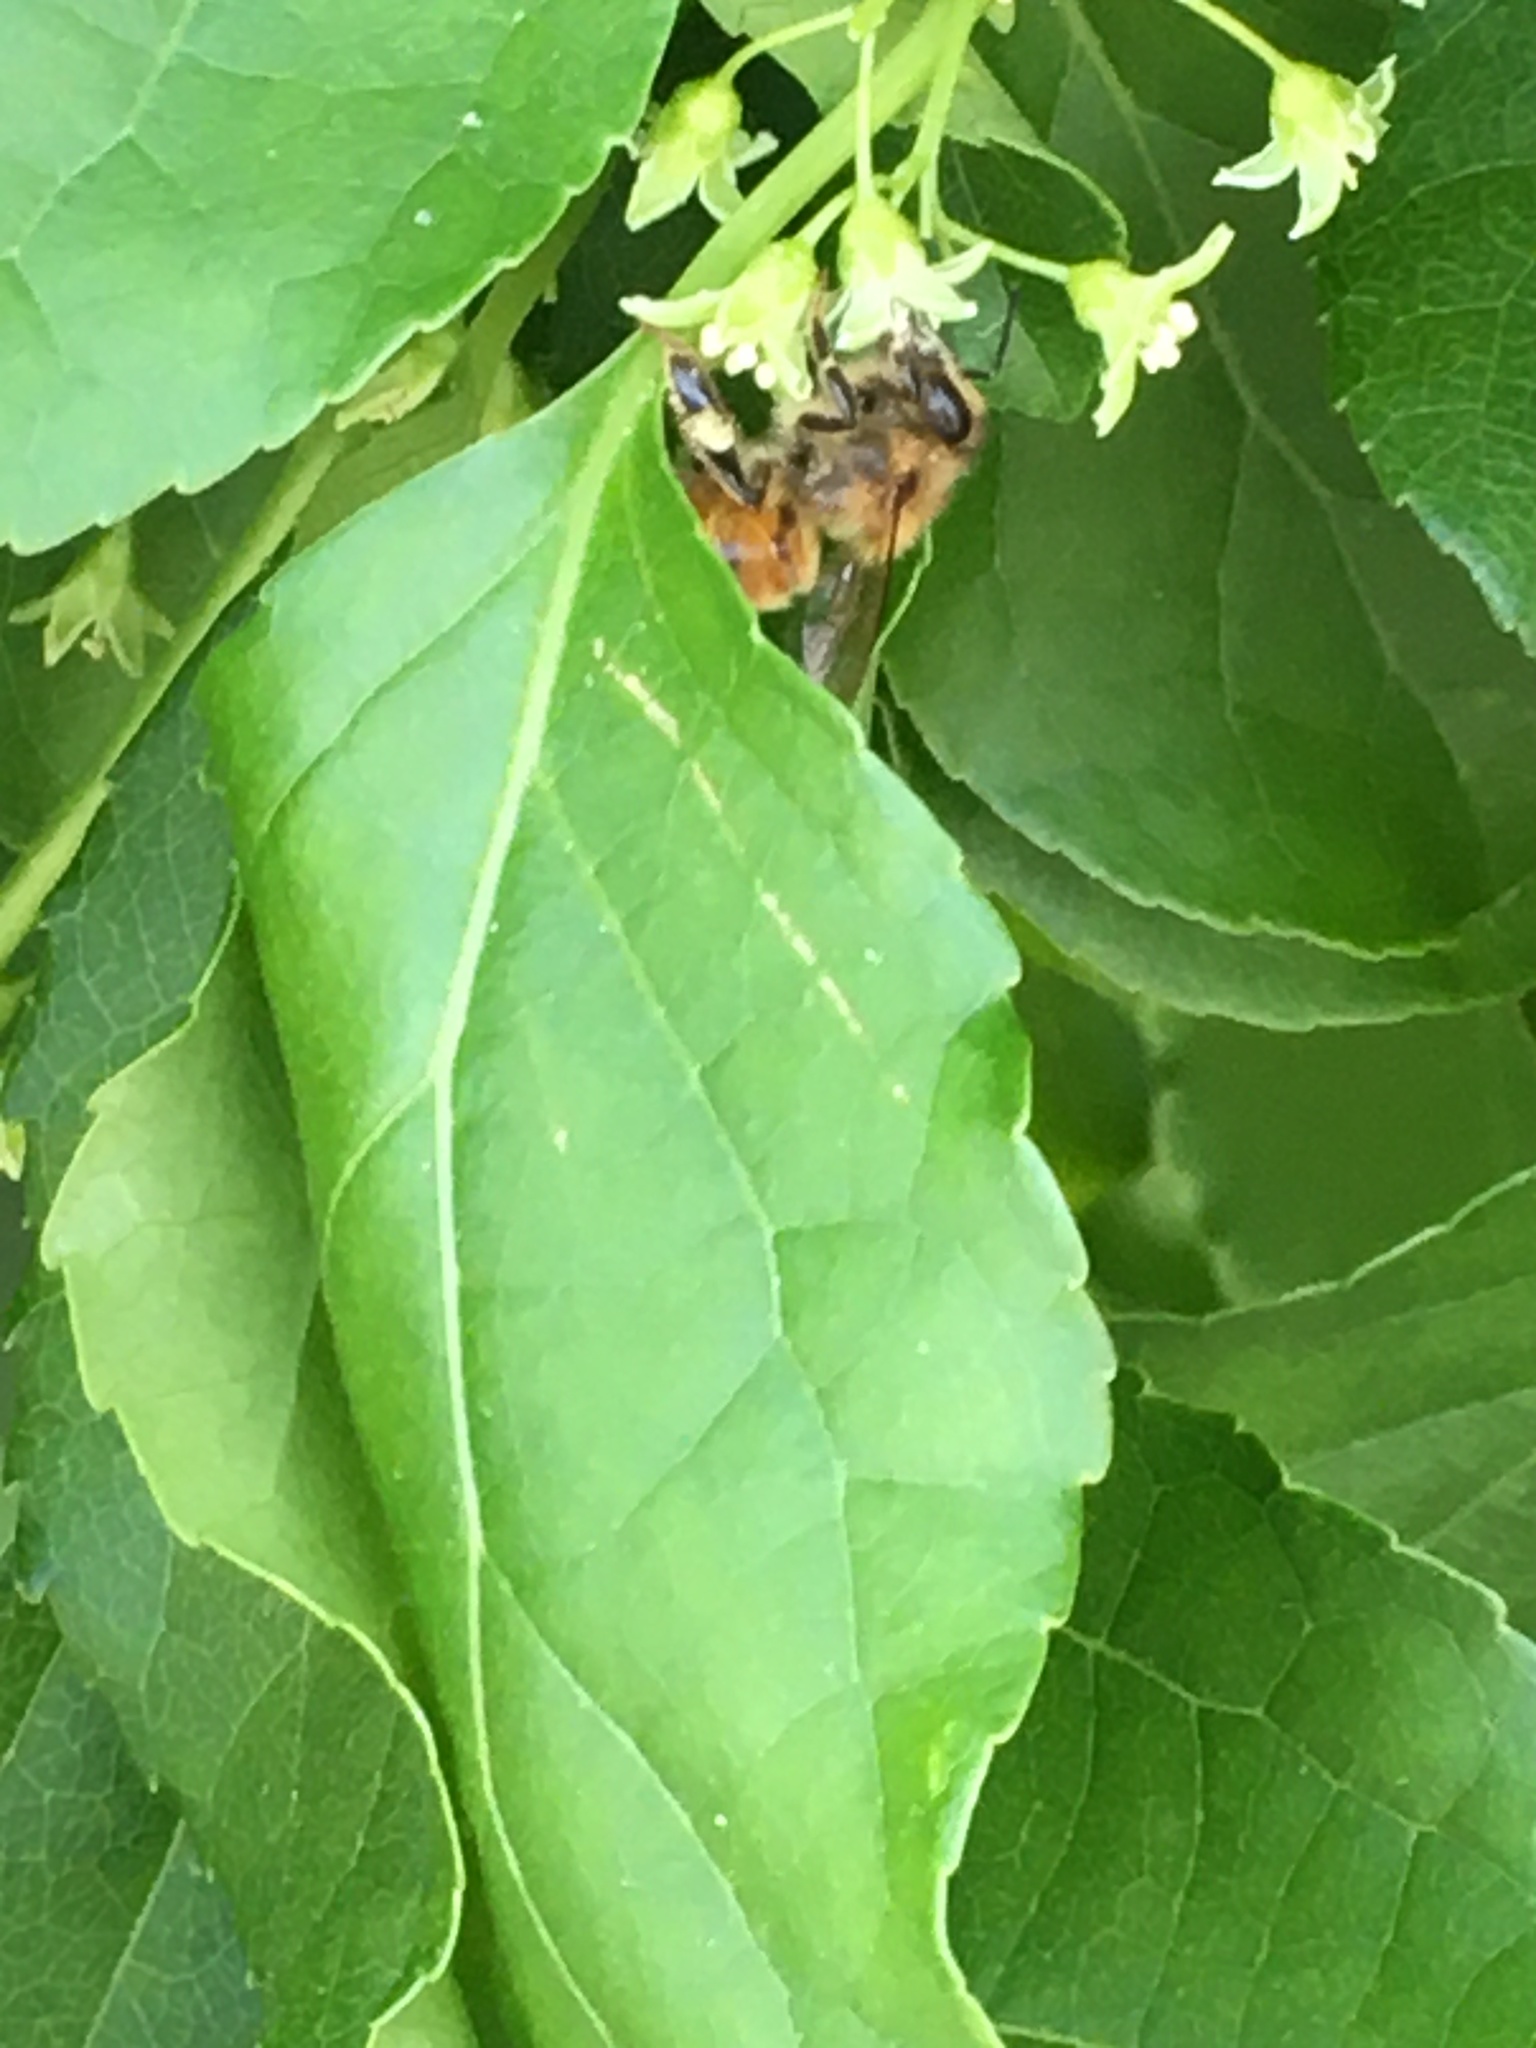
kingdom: Animalia
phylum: Arthropoda
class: Insecta
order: Hymenoptera
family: Apidae
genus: Apis
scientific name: Apis mellifera
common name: Honey bee
